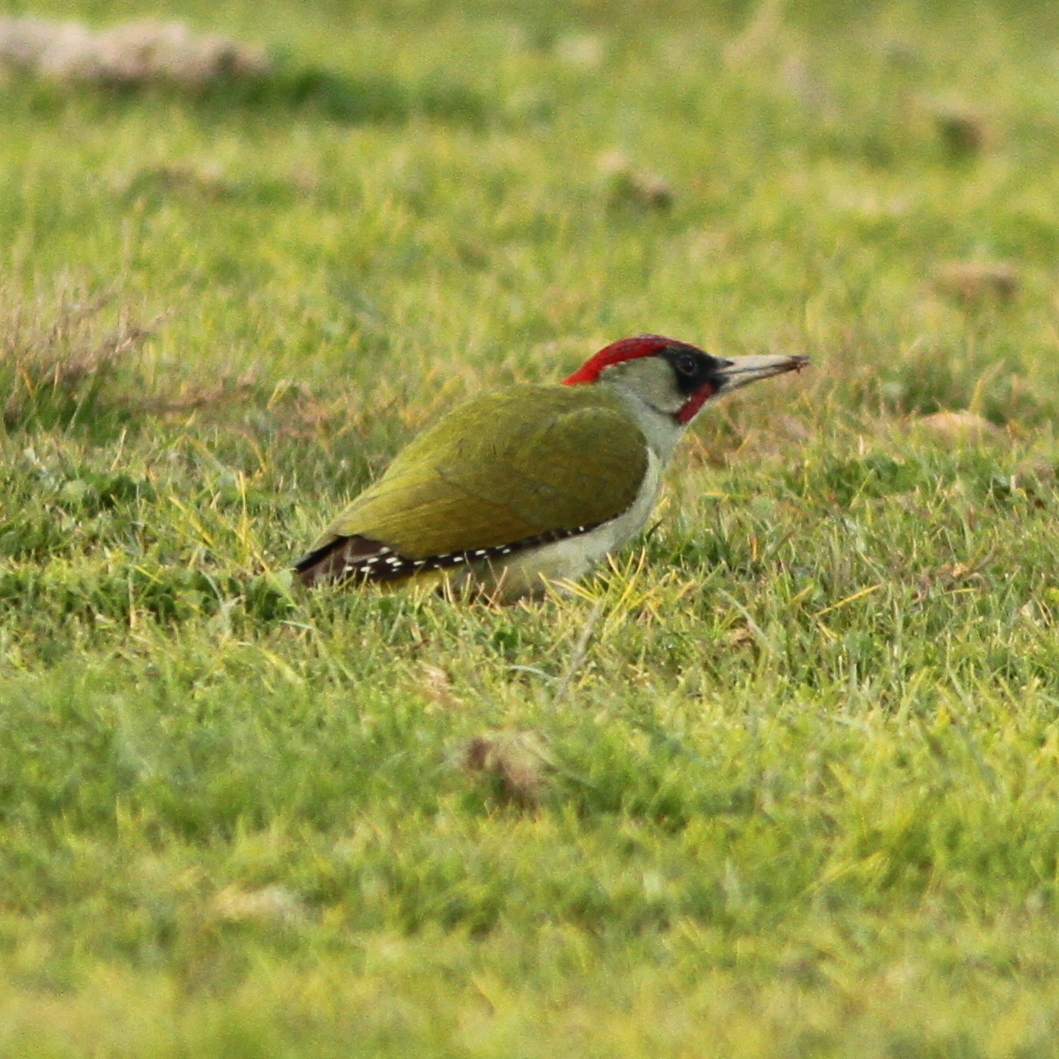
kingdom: Animalia
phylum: Chordata
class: Aves
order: Piciformes
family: Picidae
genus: Picus
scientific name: Picus viridis
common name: European green woodpecker
